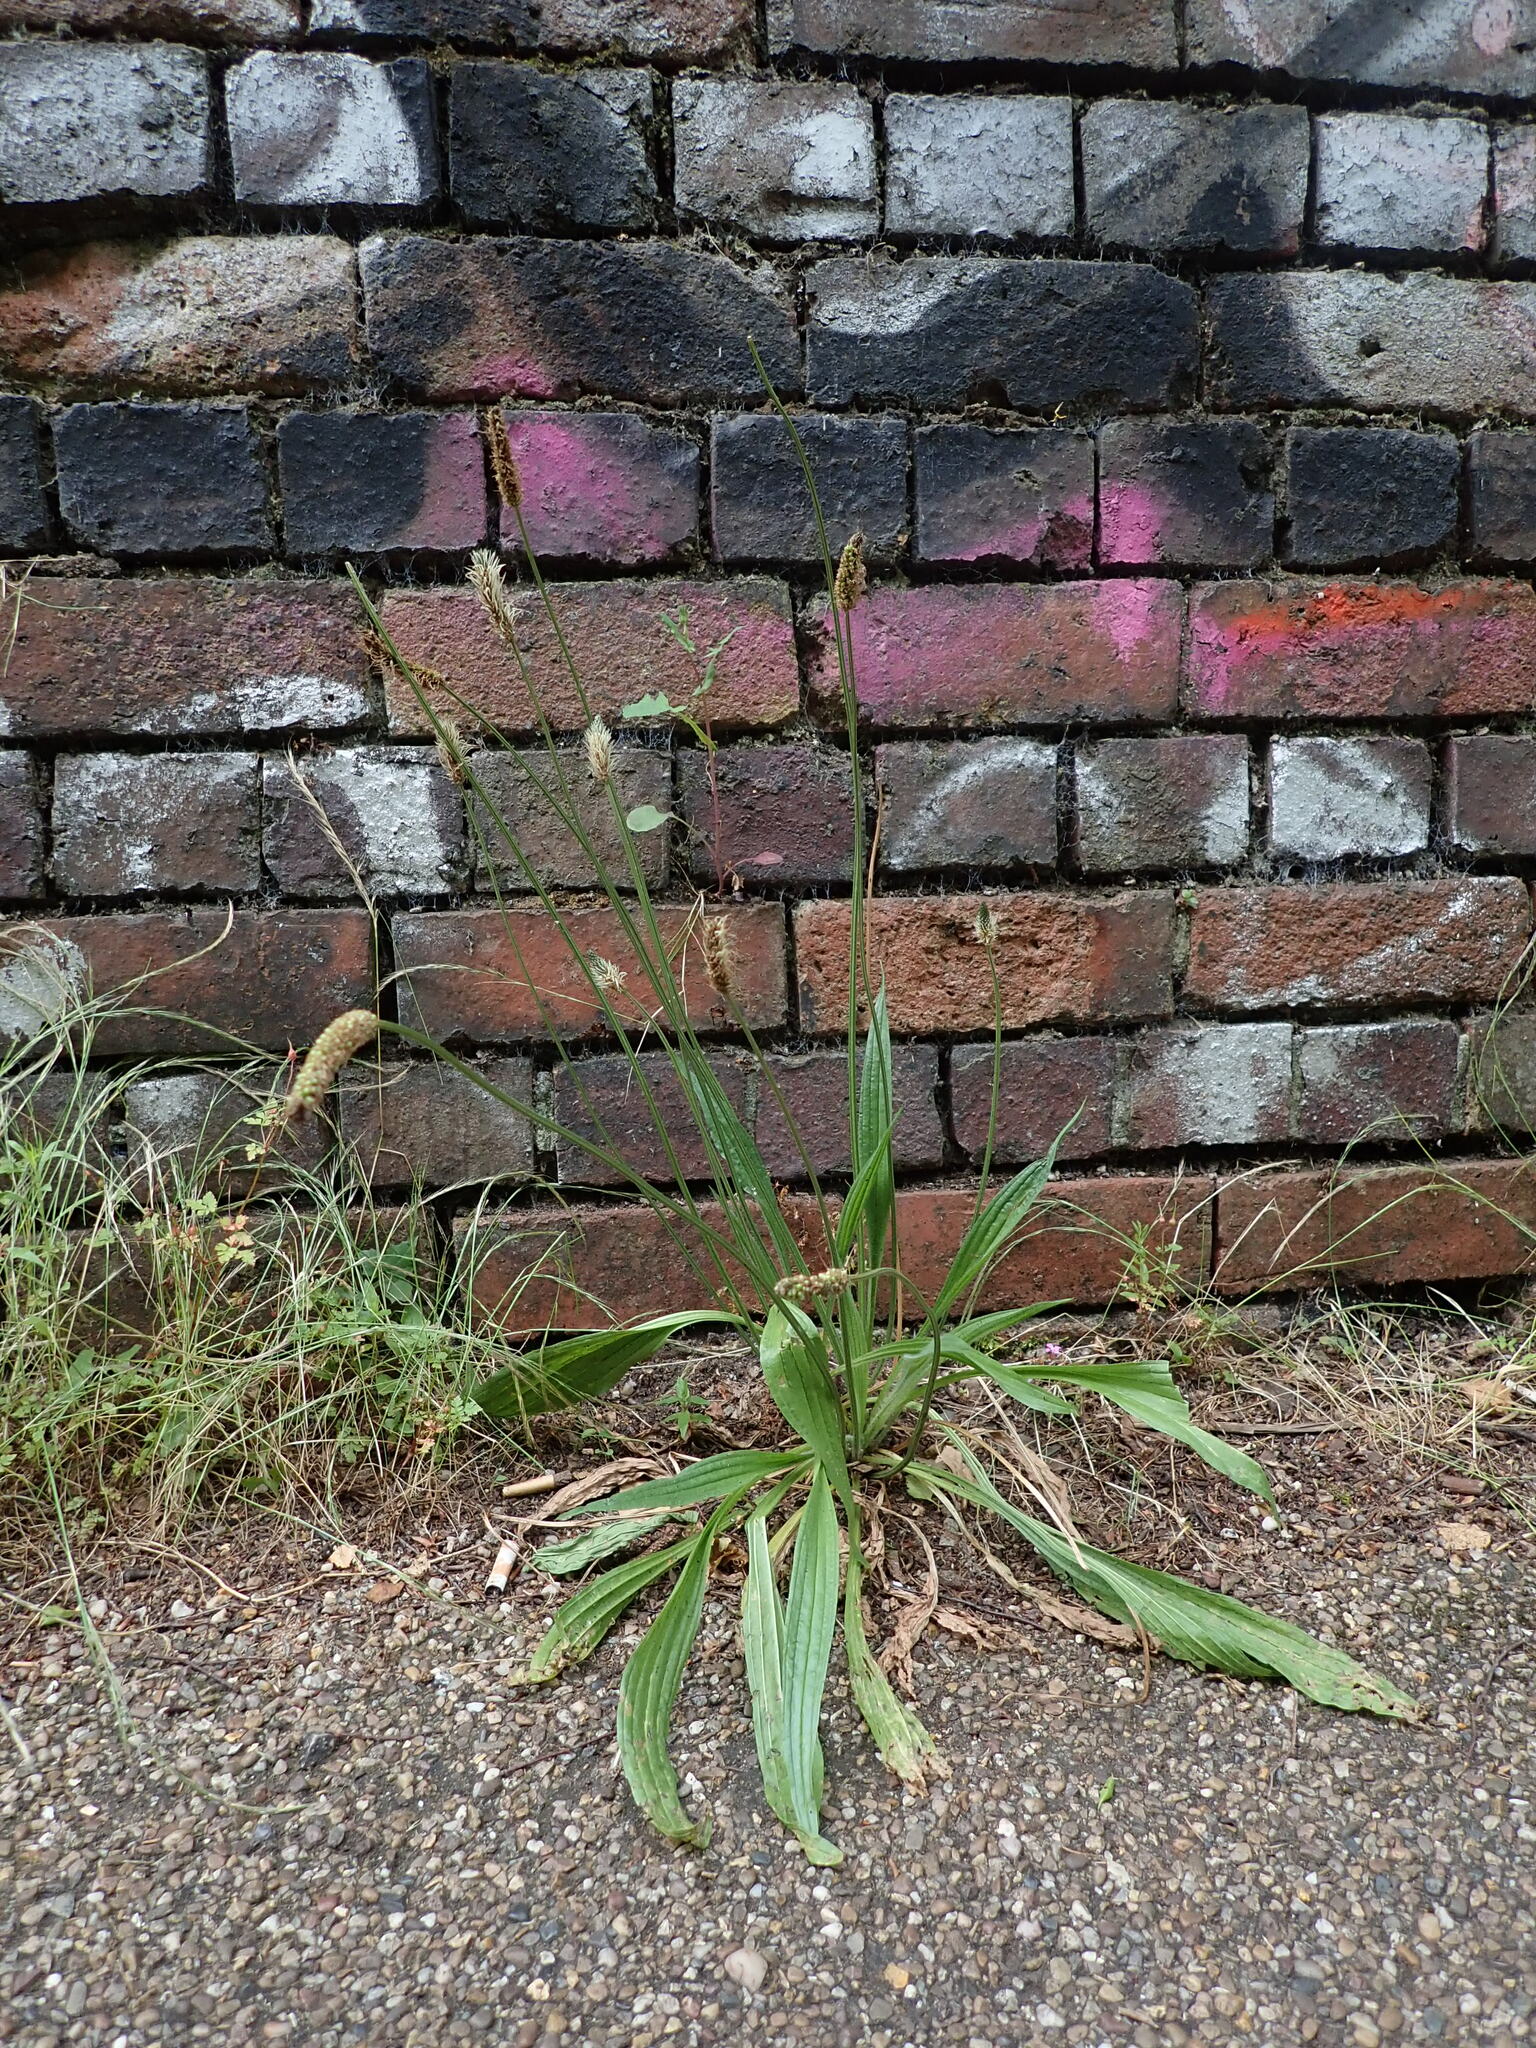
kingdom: Plantae
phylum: Tracheophyta
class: Magnoliopsida
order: Lamiales
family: Plantaginaceae
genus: Plantago
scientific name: Plantago lanceolata
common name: Ribwort plantain
